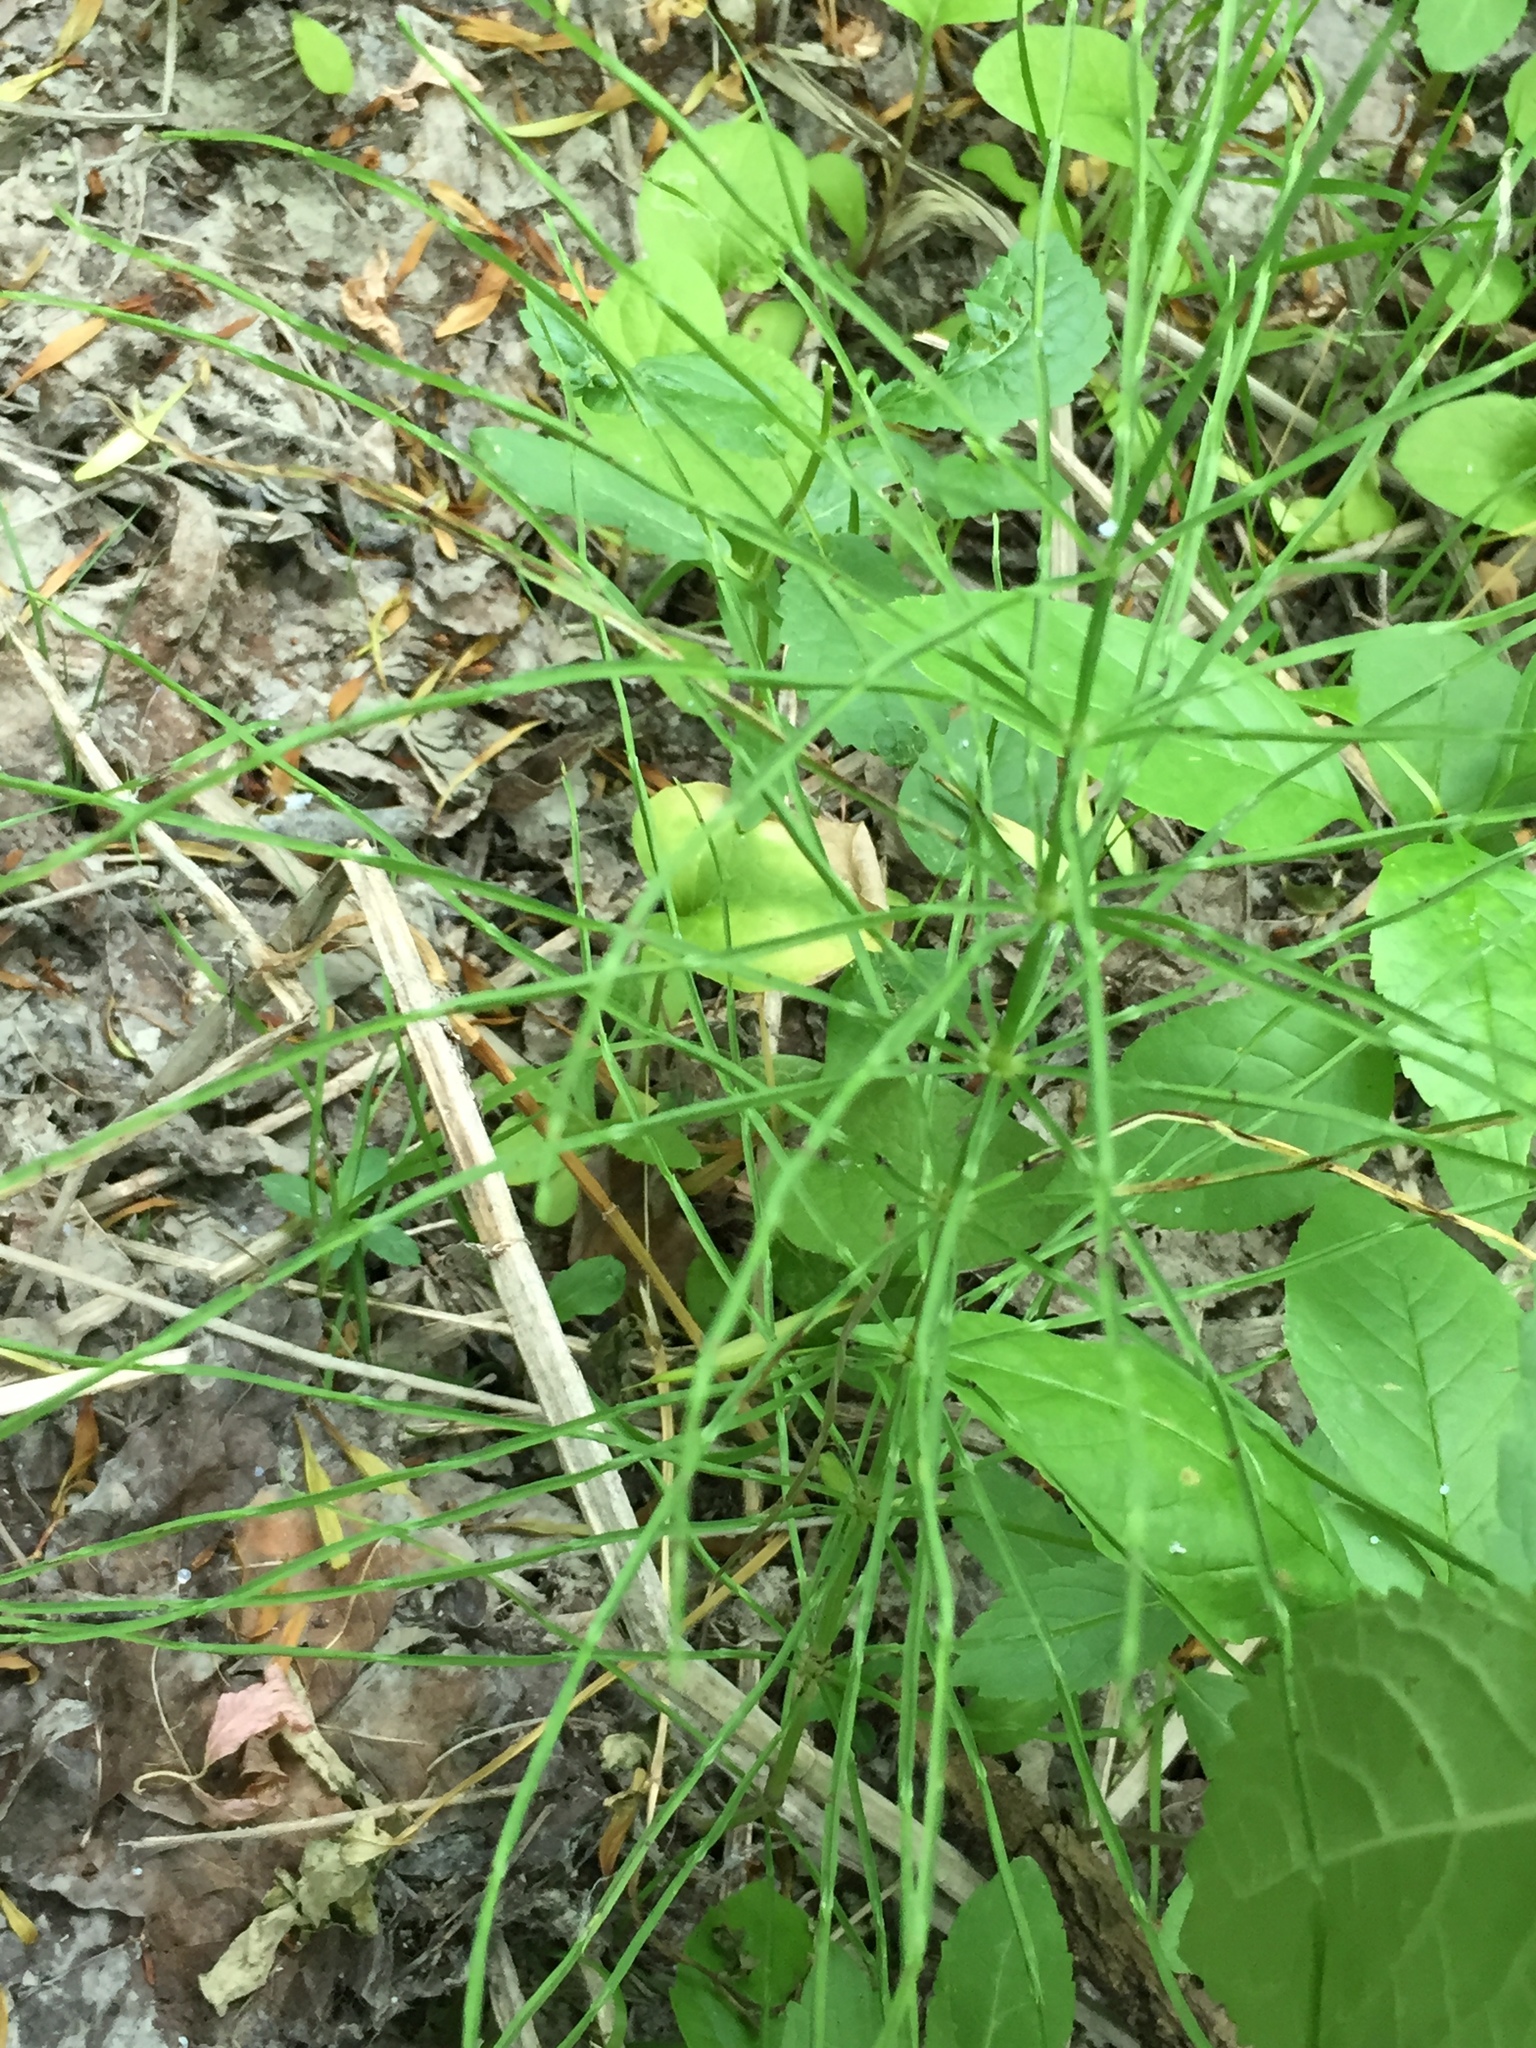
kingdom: Plantae
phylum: Tracheophyta
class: Polypodiopsida
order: Equisetales
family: Equisetaceae
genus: Equisetum
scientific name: Equisetum arvense
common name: Field horsetail
